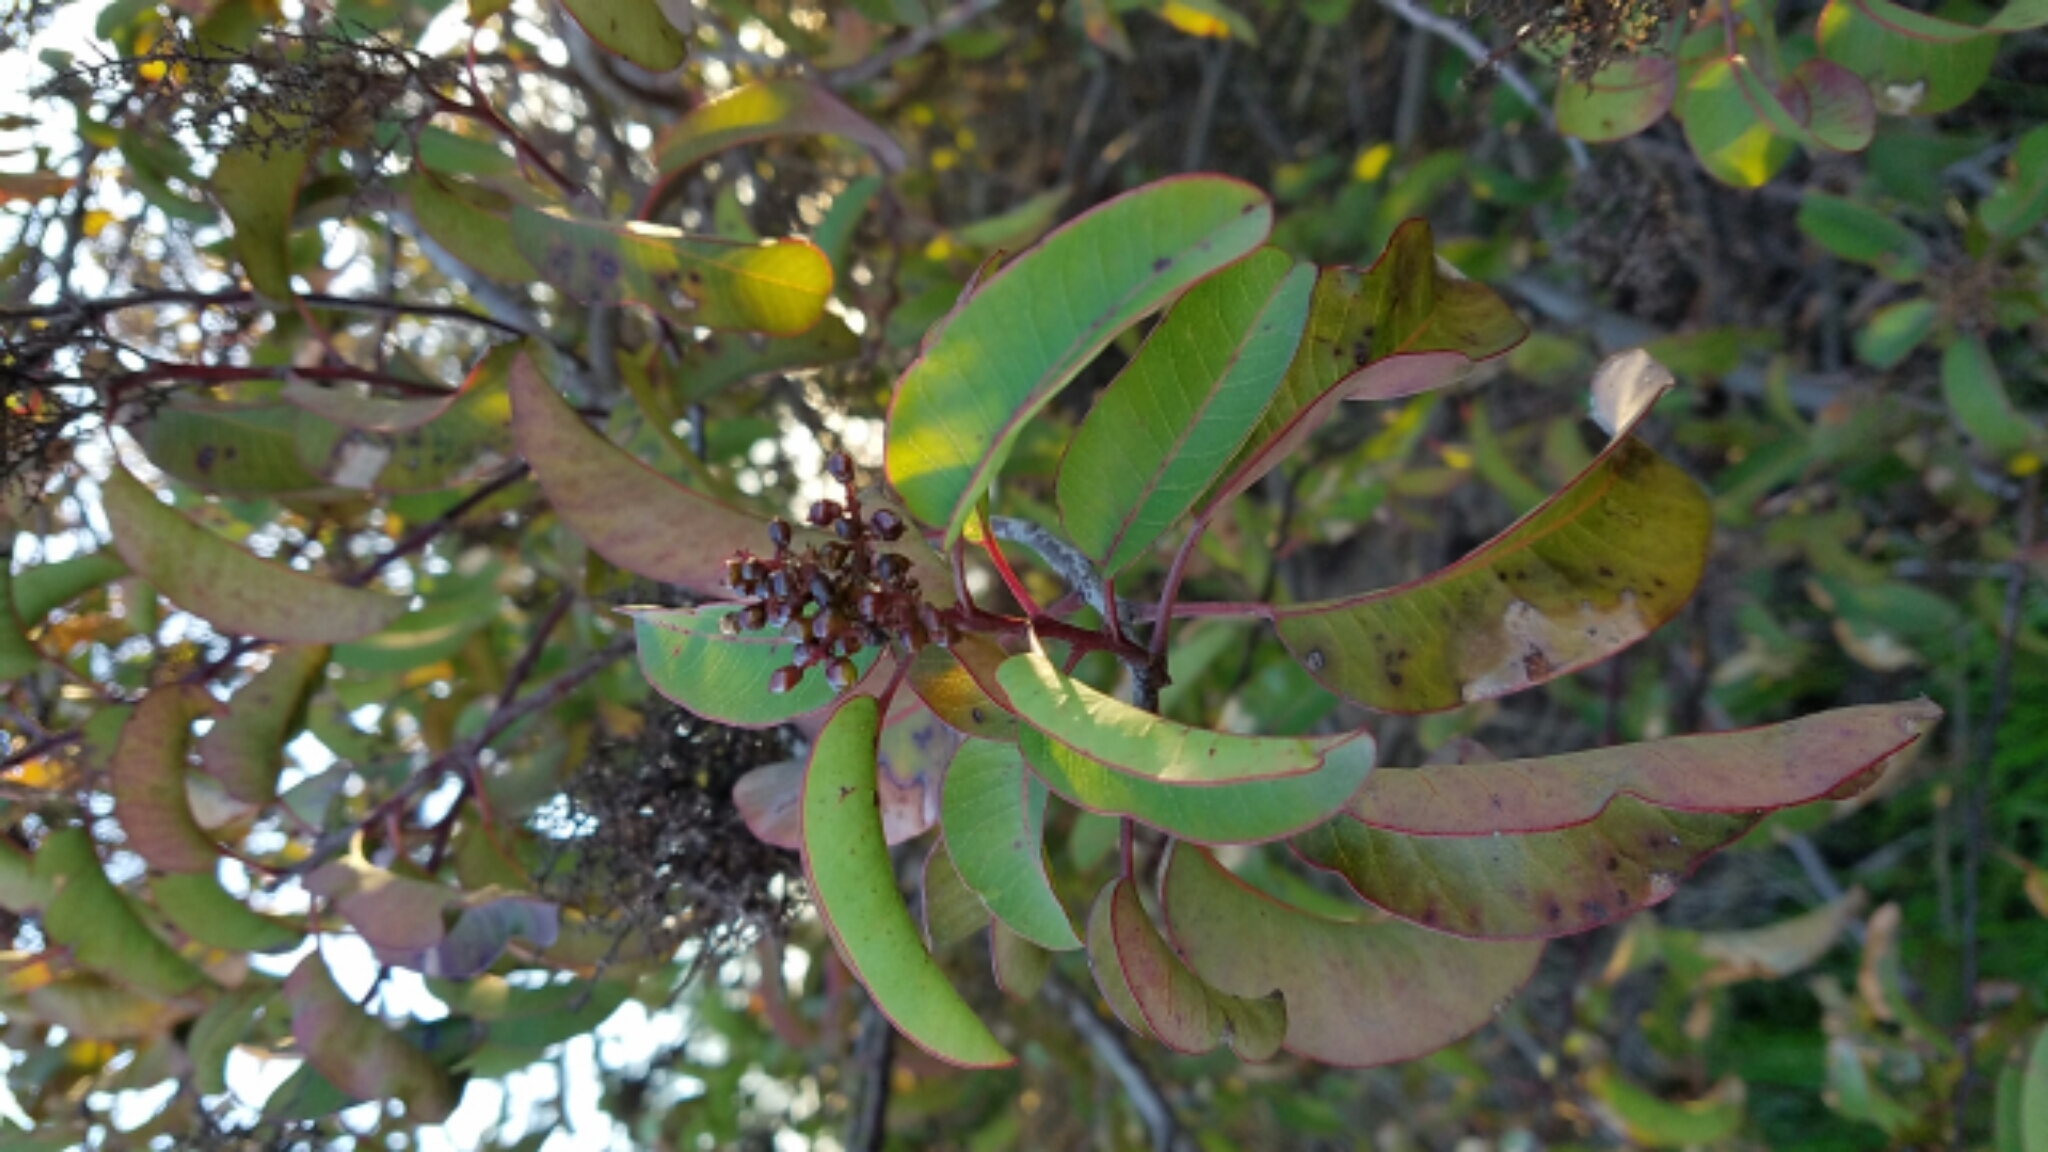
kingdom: Plantae
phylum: Tracheophyta
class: Magnoliopsida
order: Sapindales
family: Anacardiaceae
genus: Malosma
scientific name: Malosma laurina
